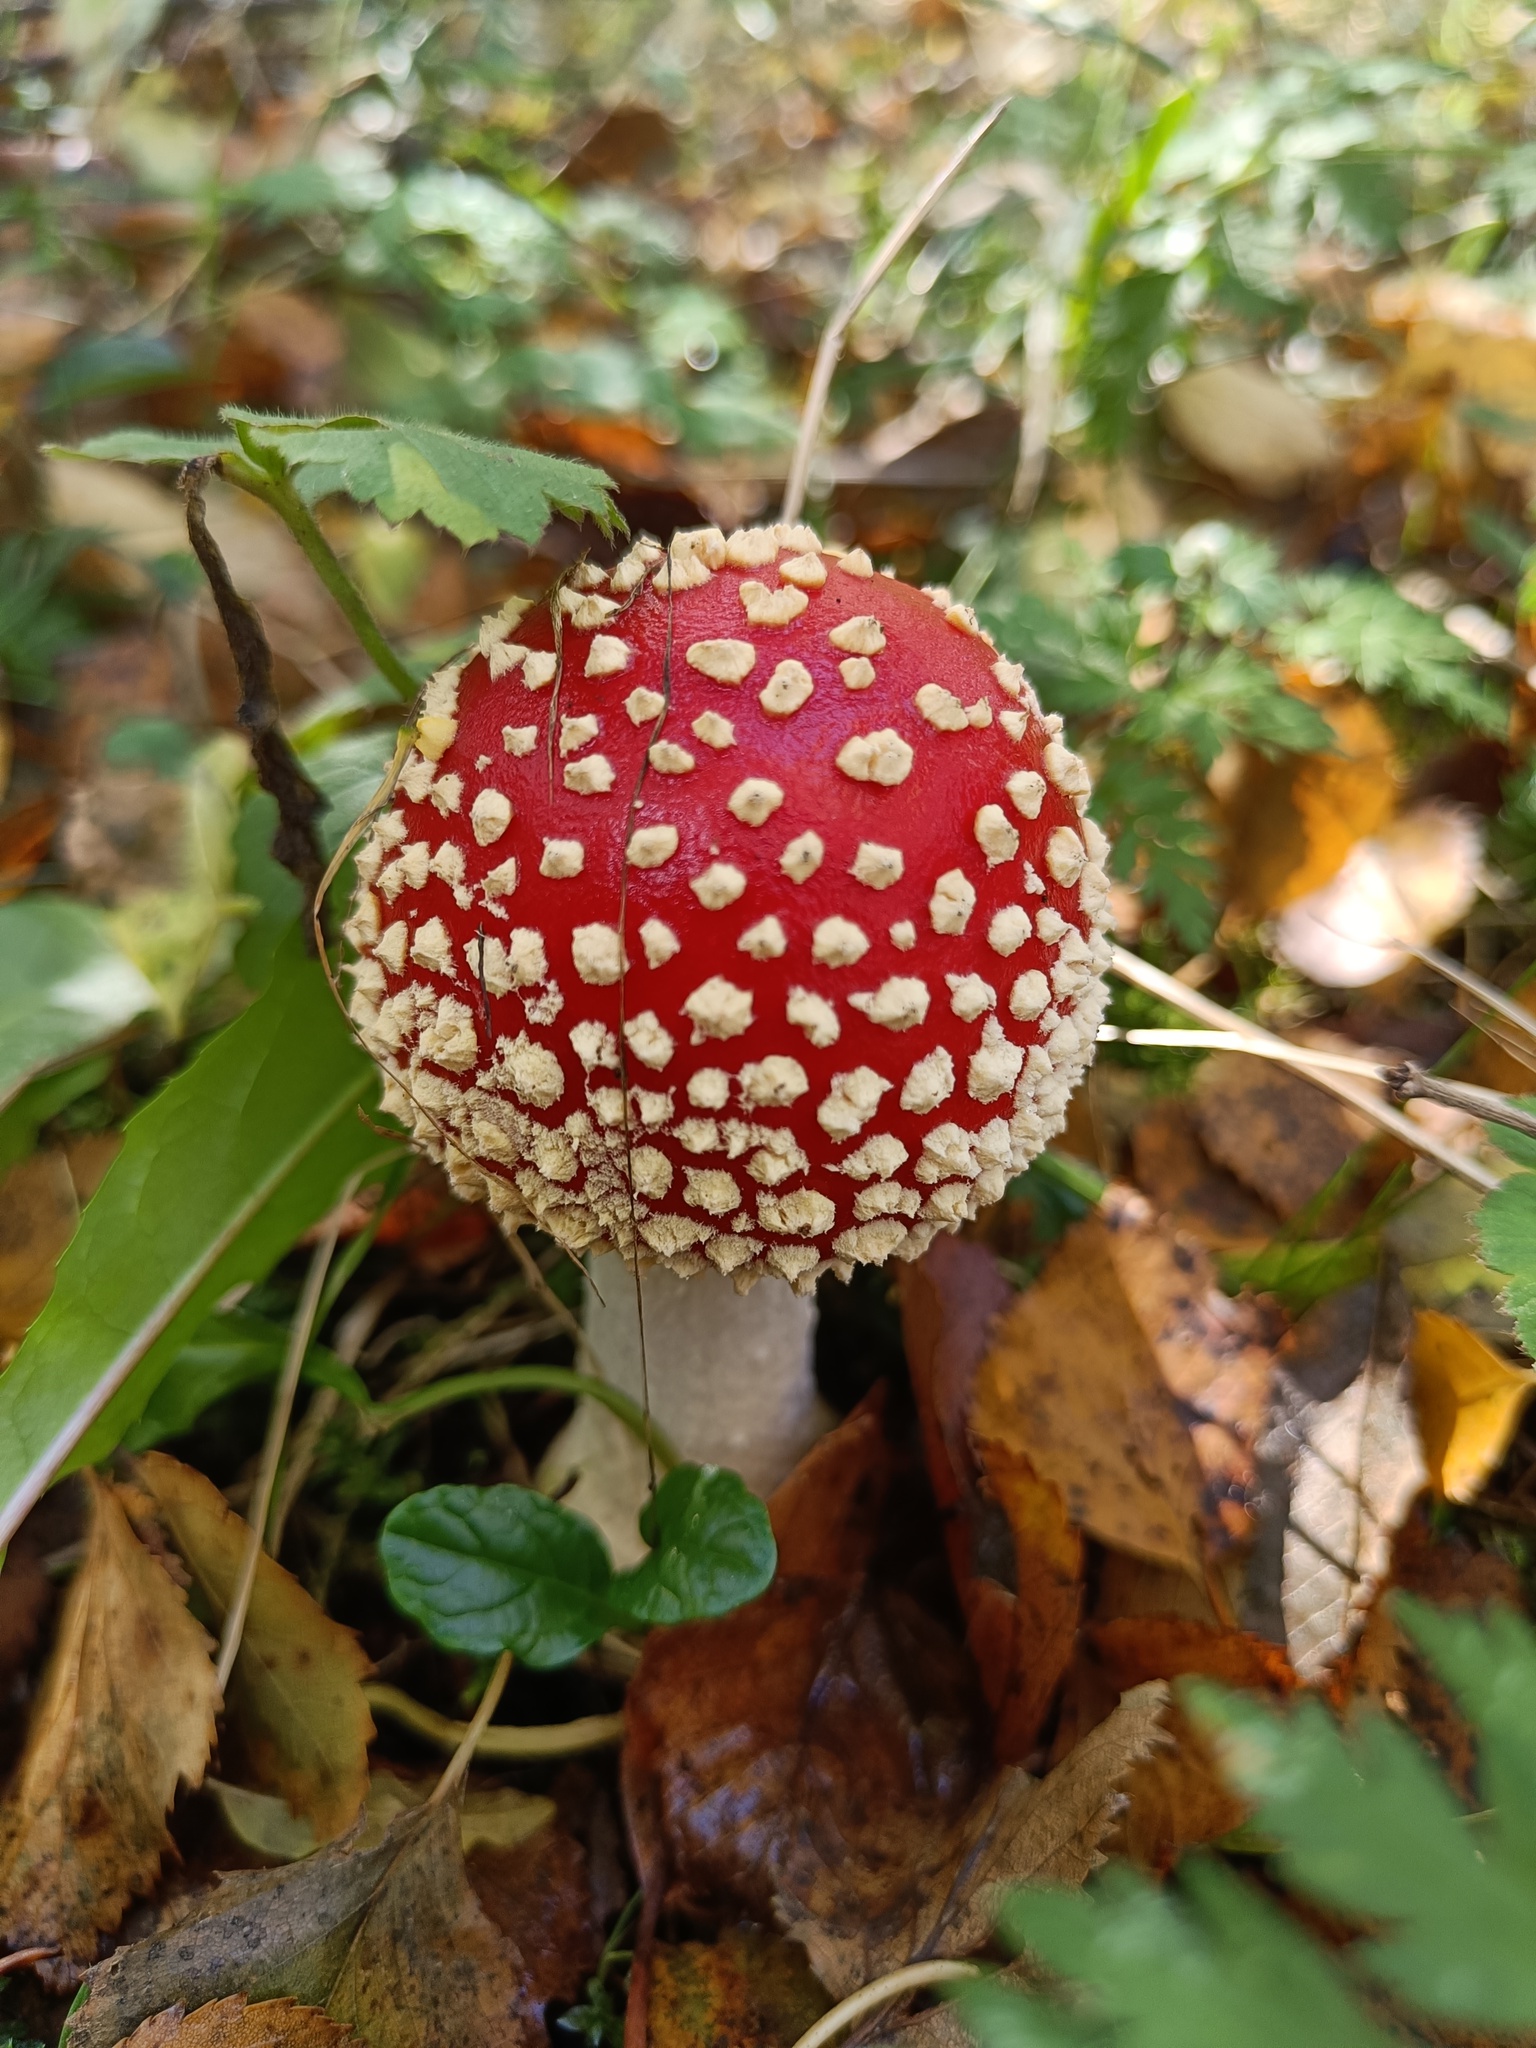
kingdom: Fungi
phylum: Basidiomycota
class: Agaricomycetes
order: Agaricales
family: Amanitaceae
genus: Amanita
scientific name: Amanita muscaria
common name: Fly agaric
